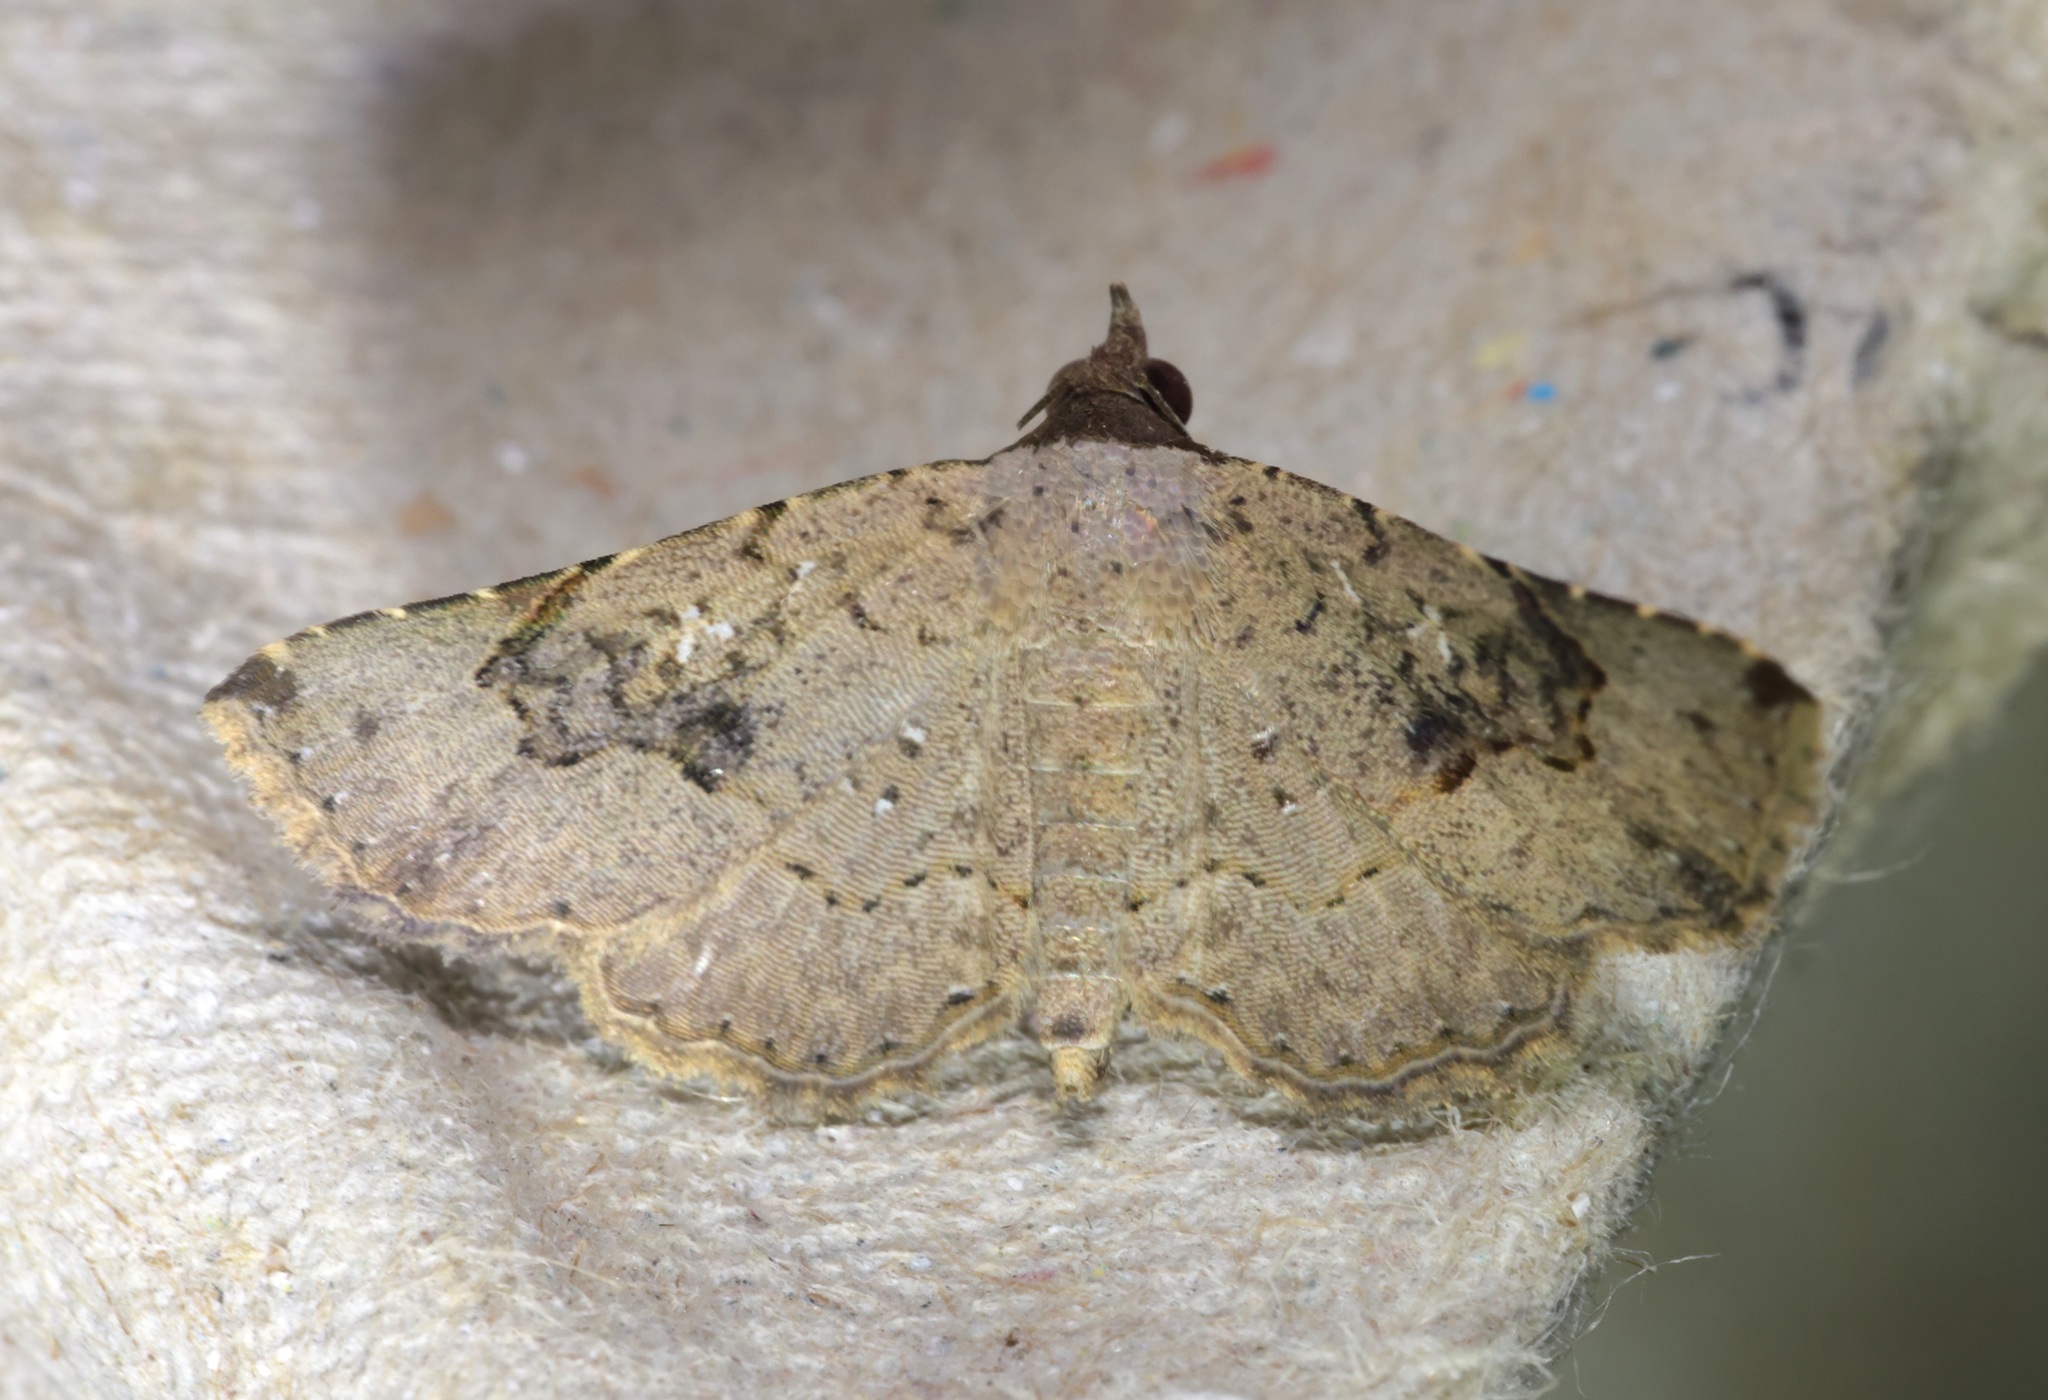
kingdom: Animalia
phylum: Arthropoda
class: Insecta
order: Lepidoptera
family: Erebidae
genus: Rhesala
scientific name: Rhesala imparata
